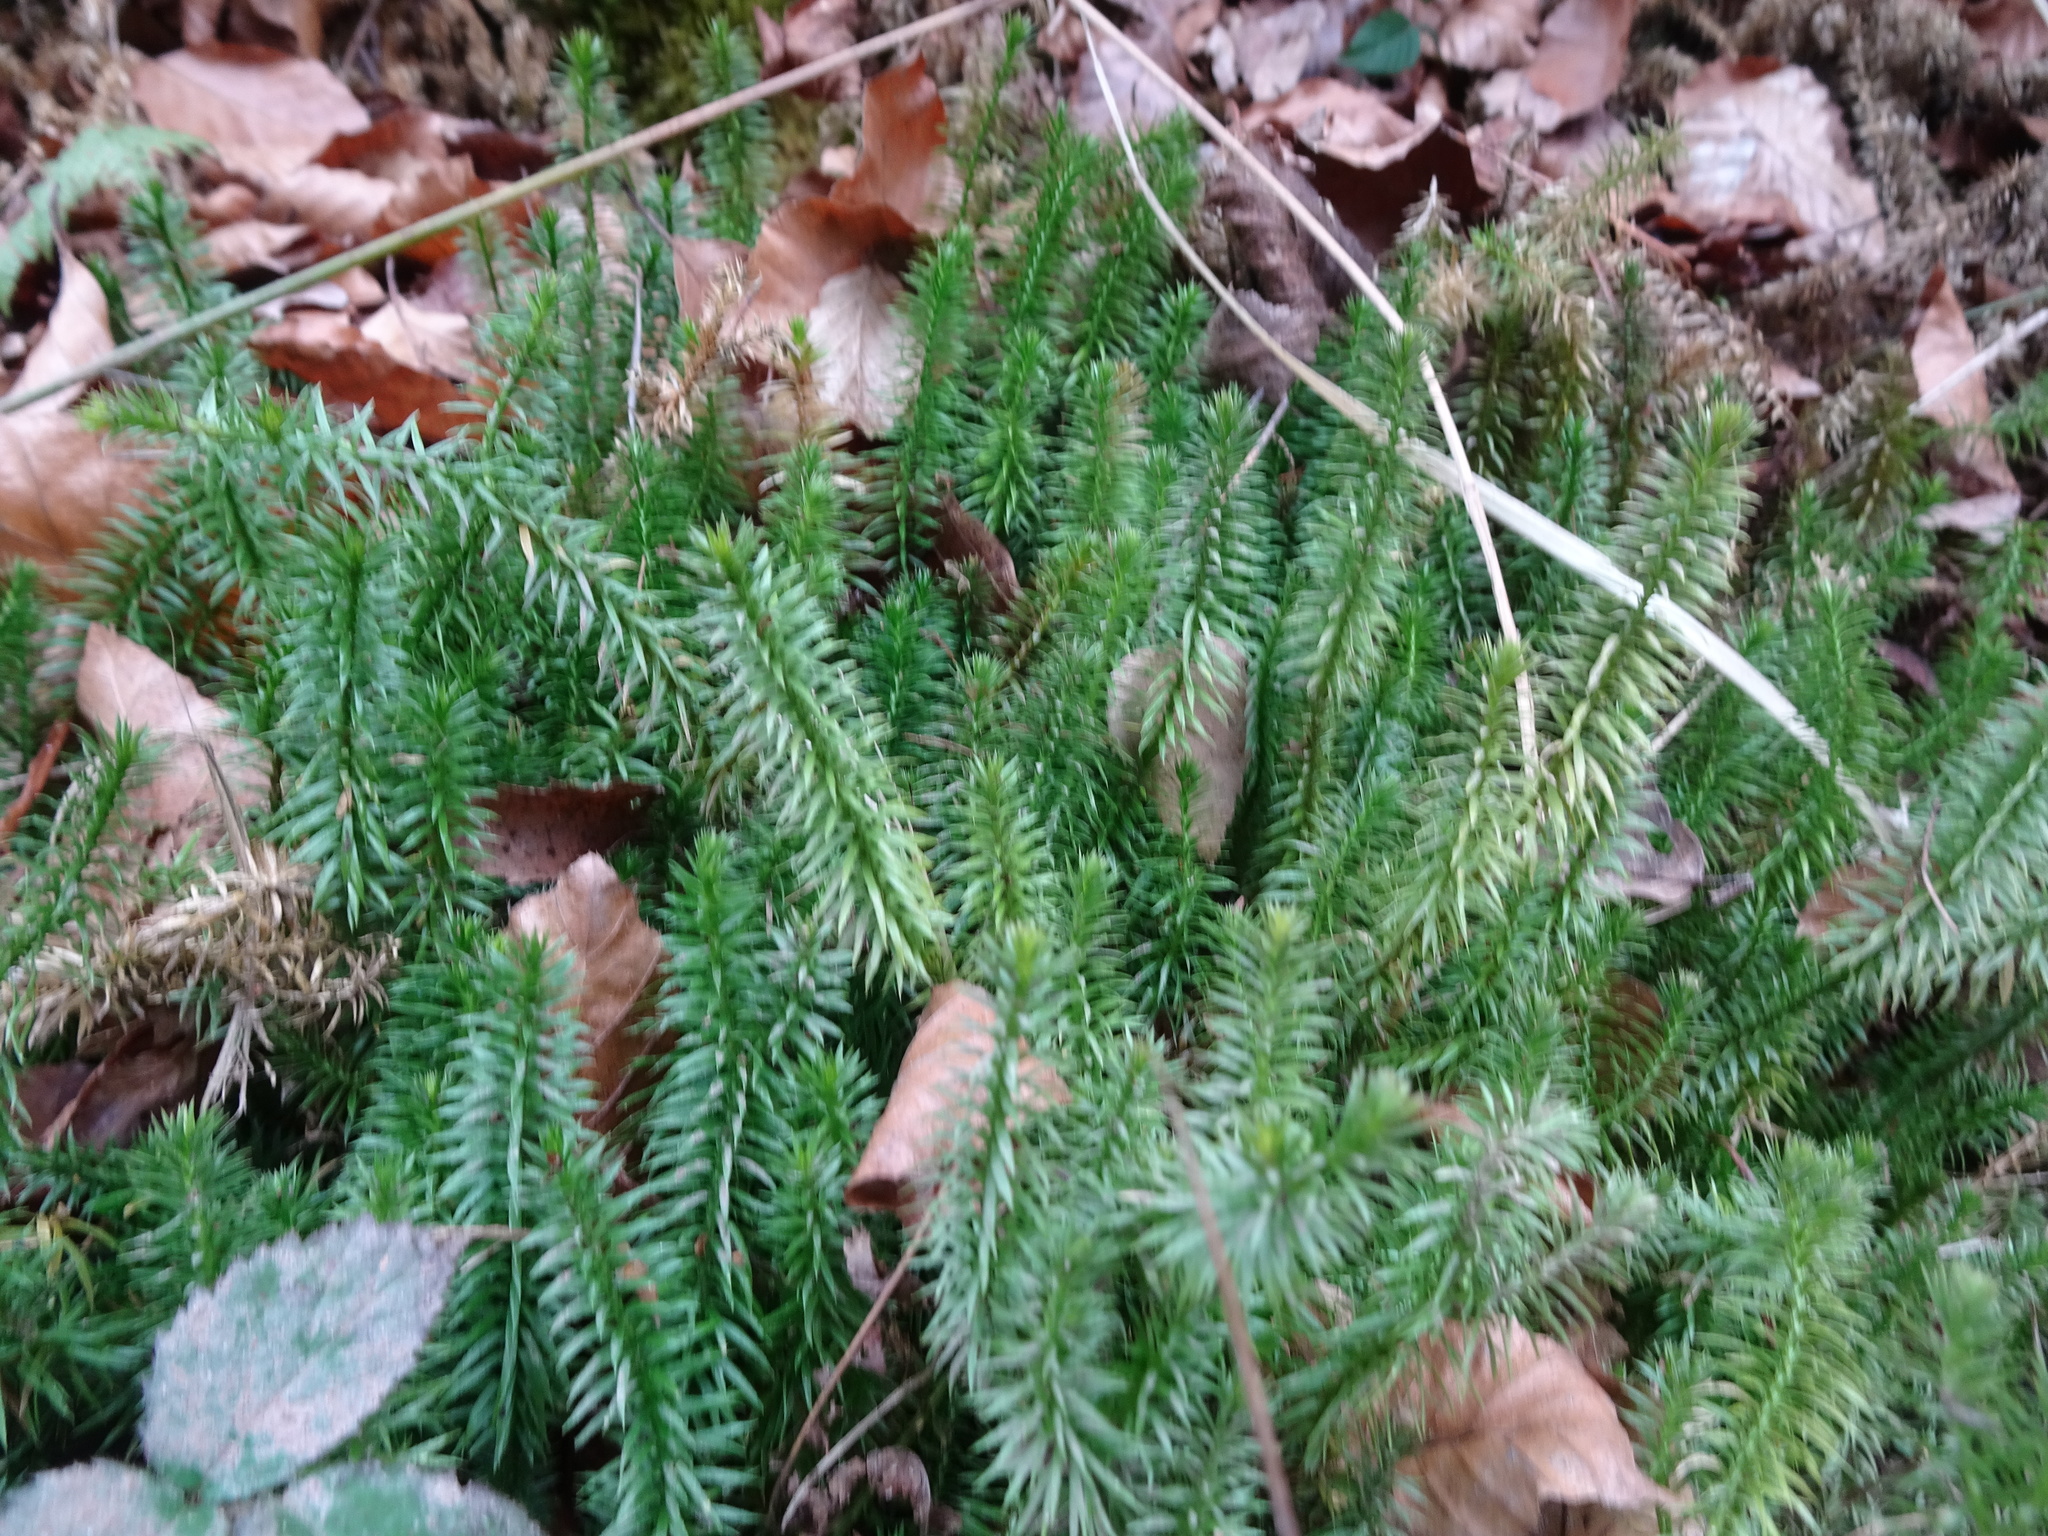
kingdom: Plantae
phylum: Tracheophyta
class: Lycopodiopsida
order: Lycopodiales
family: Lycopodiaceae
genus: Spinulum
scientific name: Spinulum annotinum
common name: Interrupted club-moss
